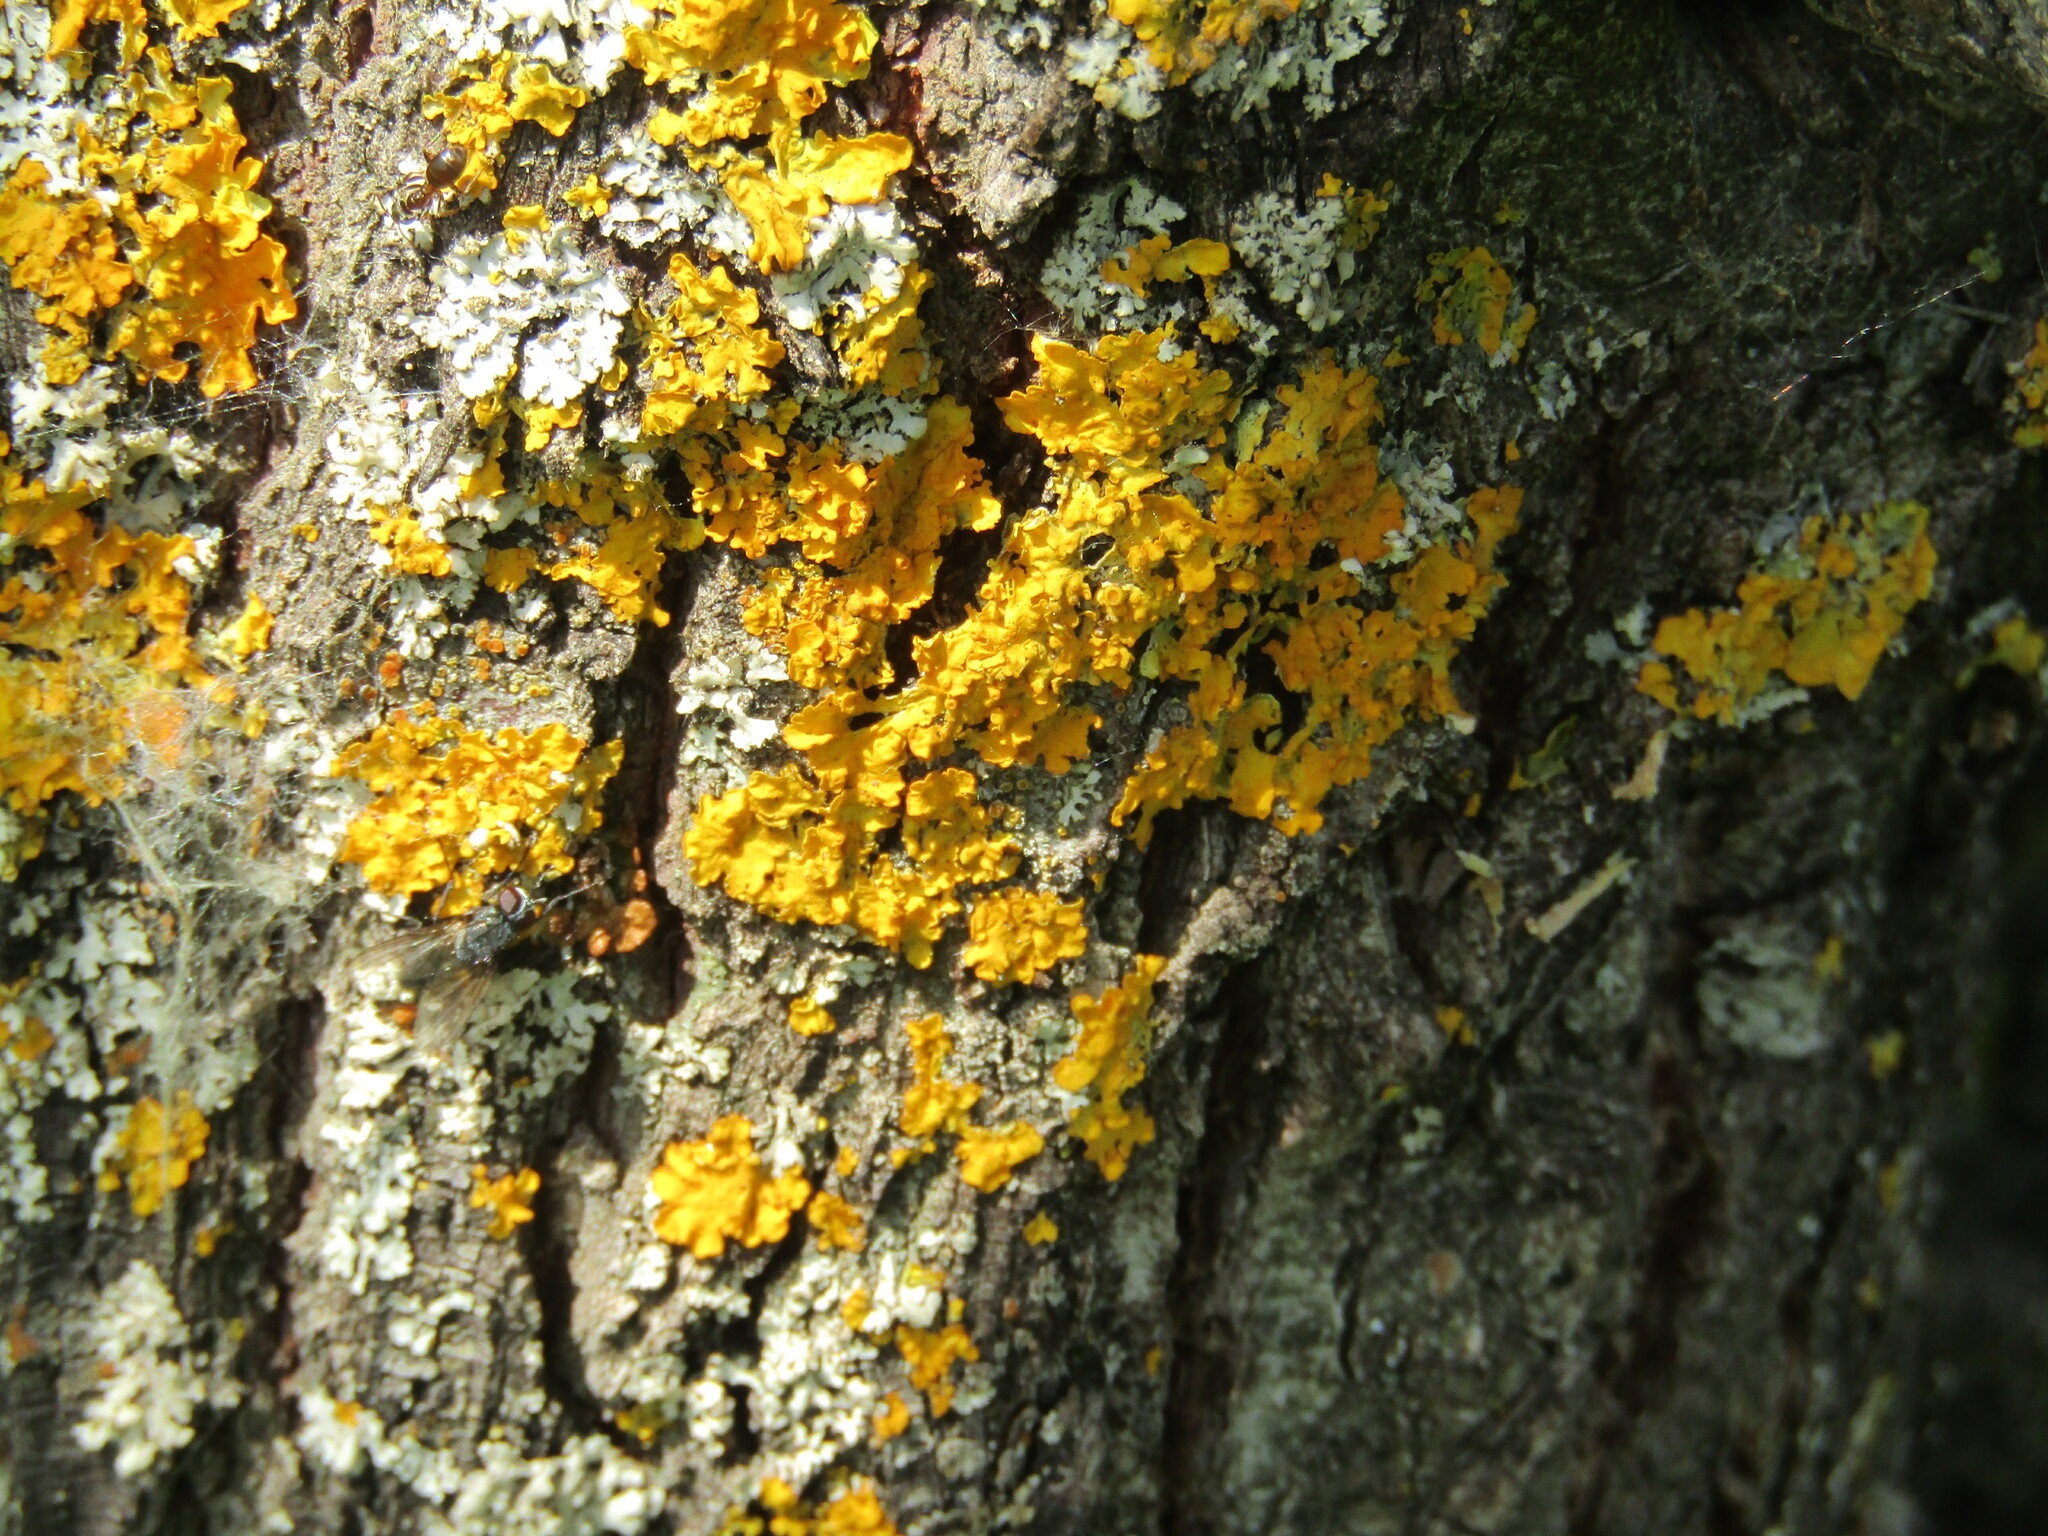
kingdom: Fungi
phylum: Ascomycota
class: Lecanoromycetes
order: Teloschistales
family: Teloschistaceae
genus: Xanthoria
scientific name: Xanthoria parietina
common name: Common orange lichen
